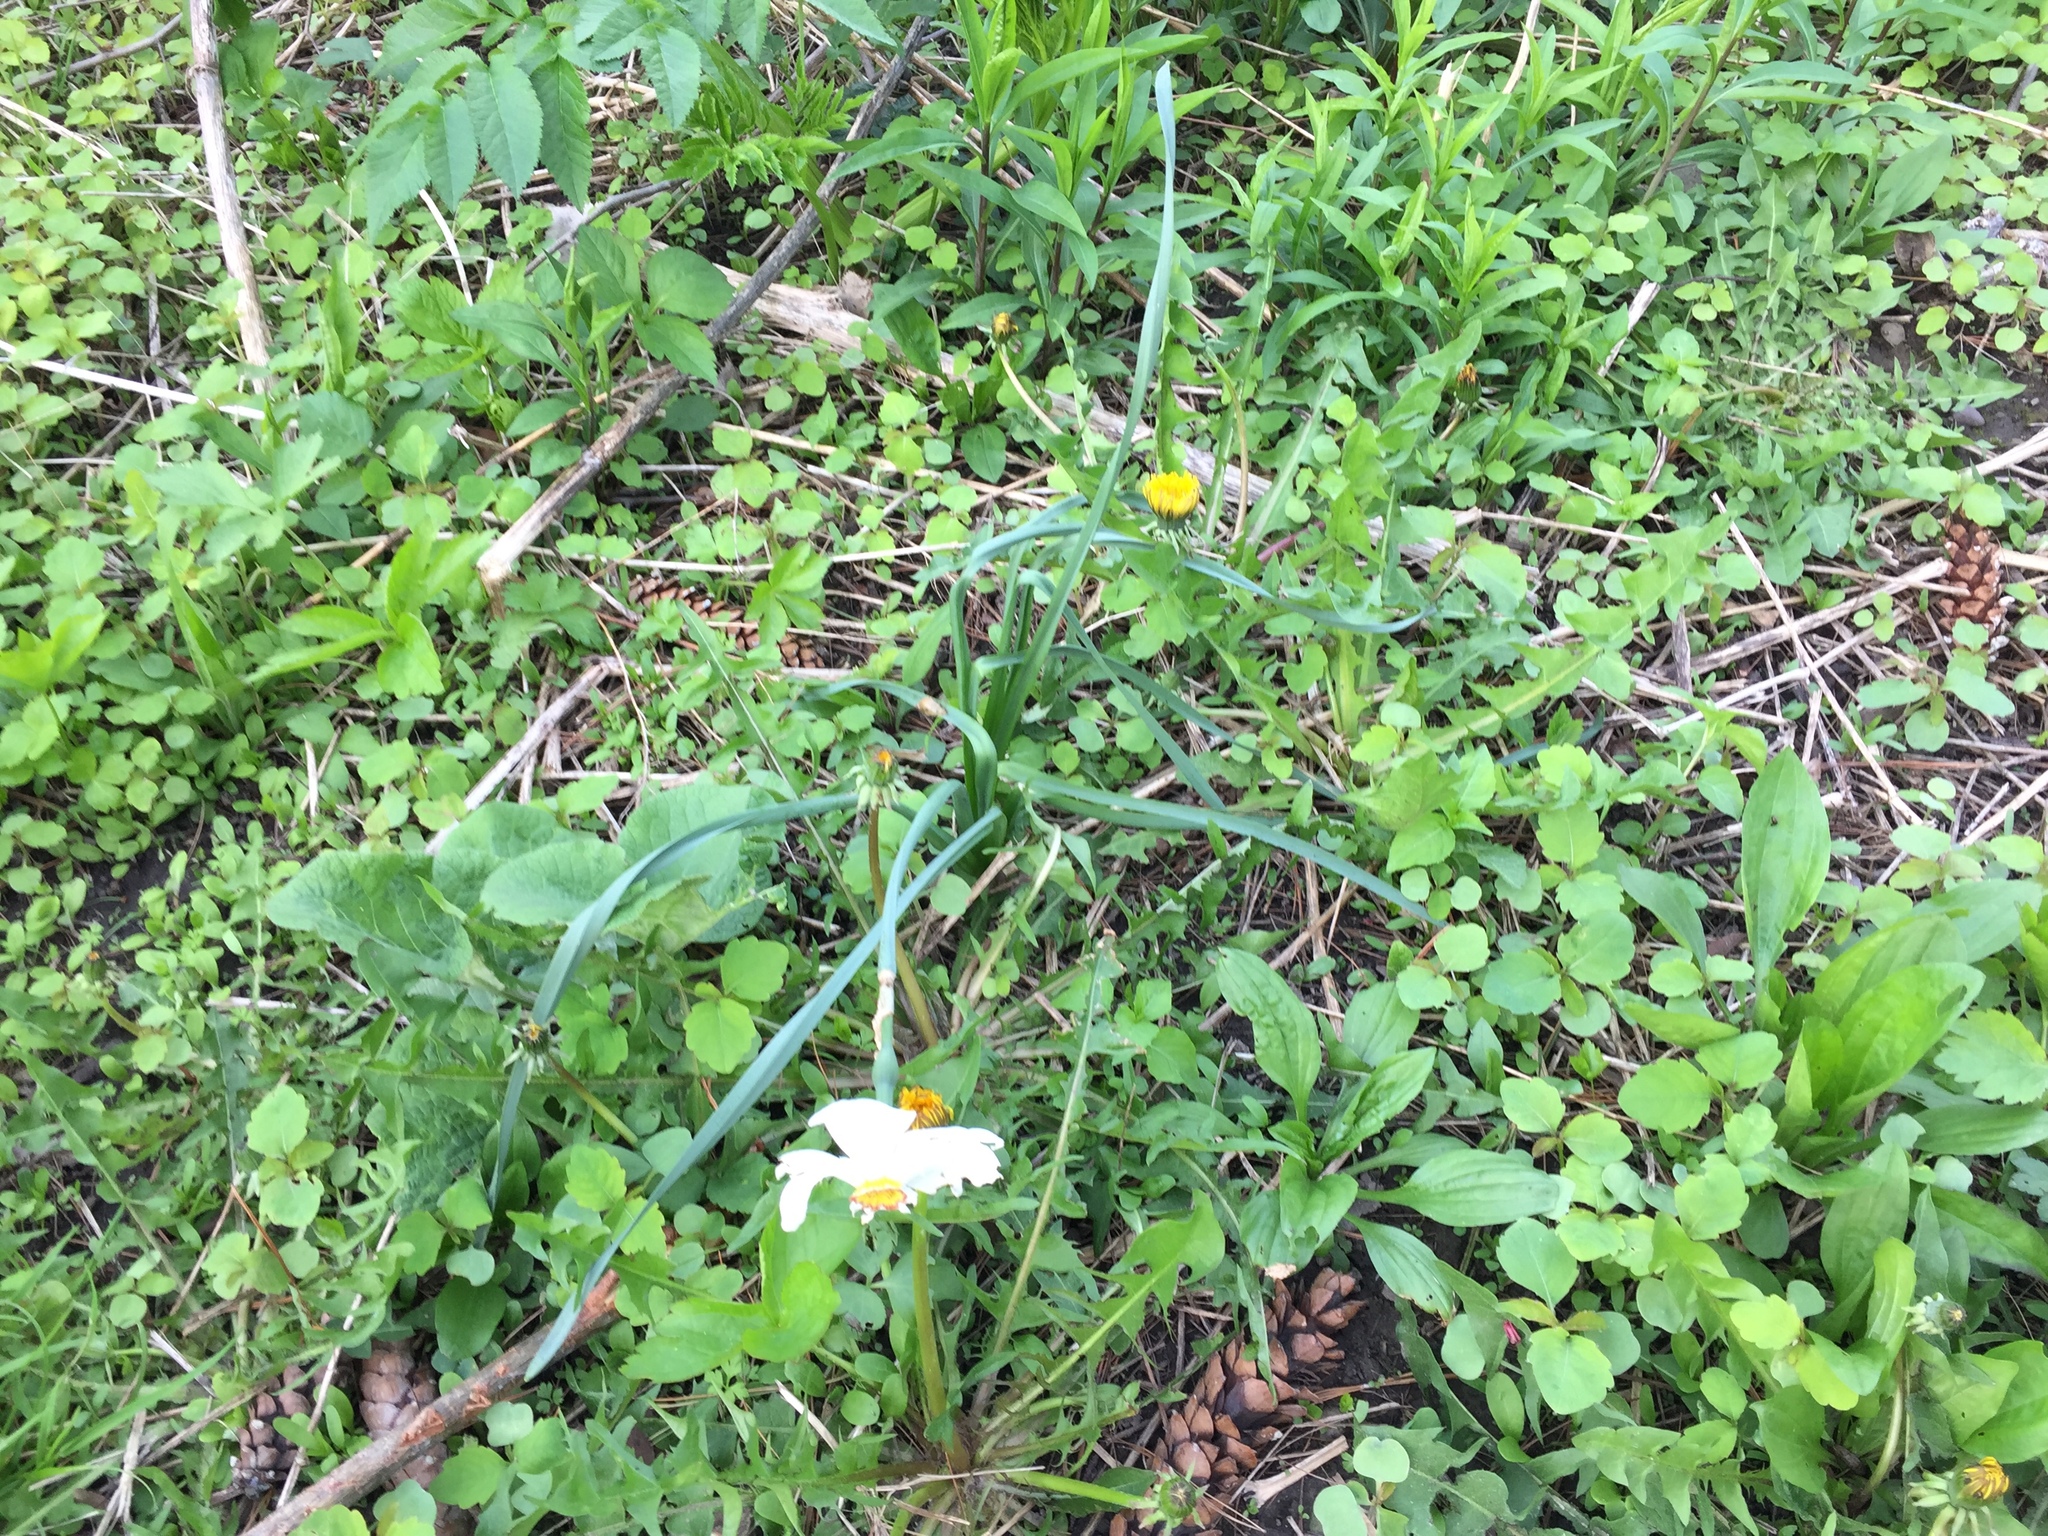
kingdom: Plantae
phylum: Tracheophyta
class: Liliopsida
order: Asparagales
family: Amaryllidaceae
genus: Narcissus
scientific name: Narcissus poeticus
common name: Pheasant's-eye daffodil
